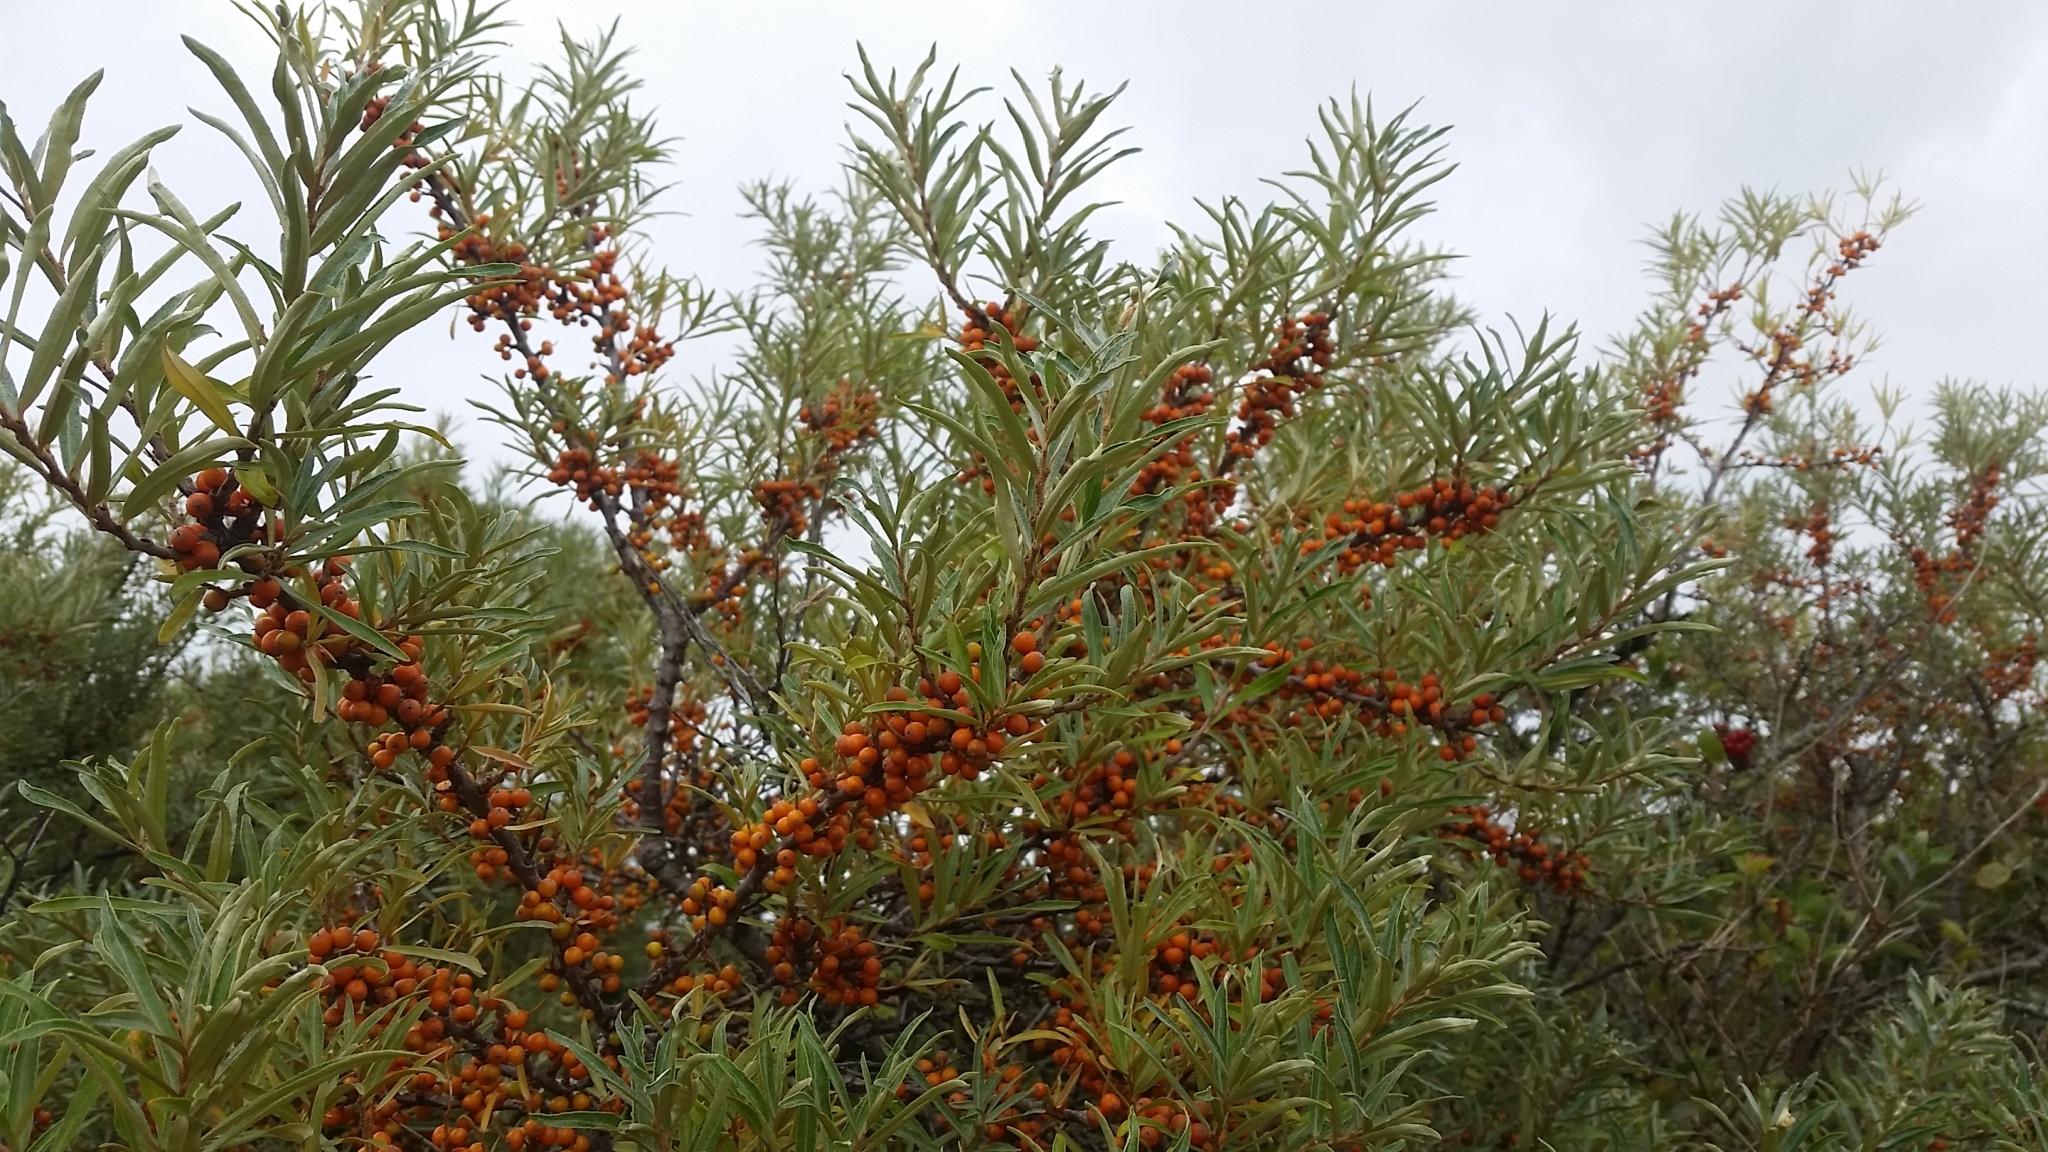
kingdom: Plantae
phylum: Tracheophyta
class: Magnoliopsida
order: Rosales
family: Elaeagnaceae
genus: Hippophae
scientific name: Hippophae rhamnoides
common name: Sea-buckthorn
